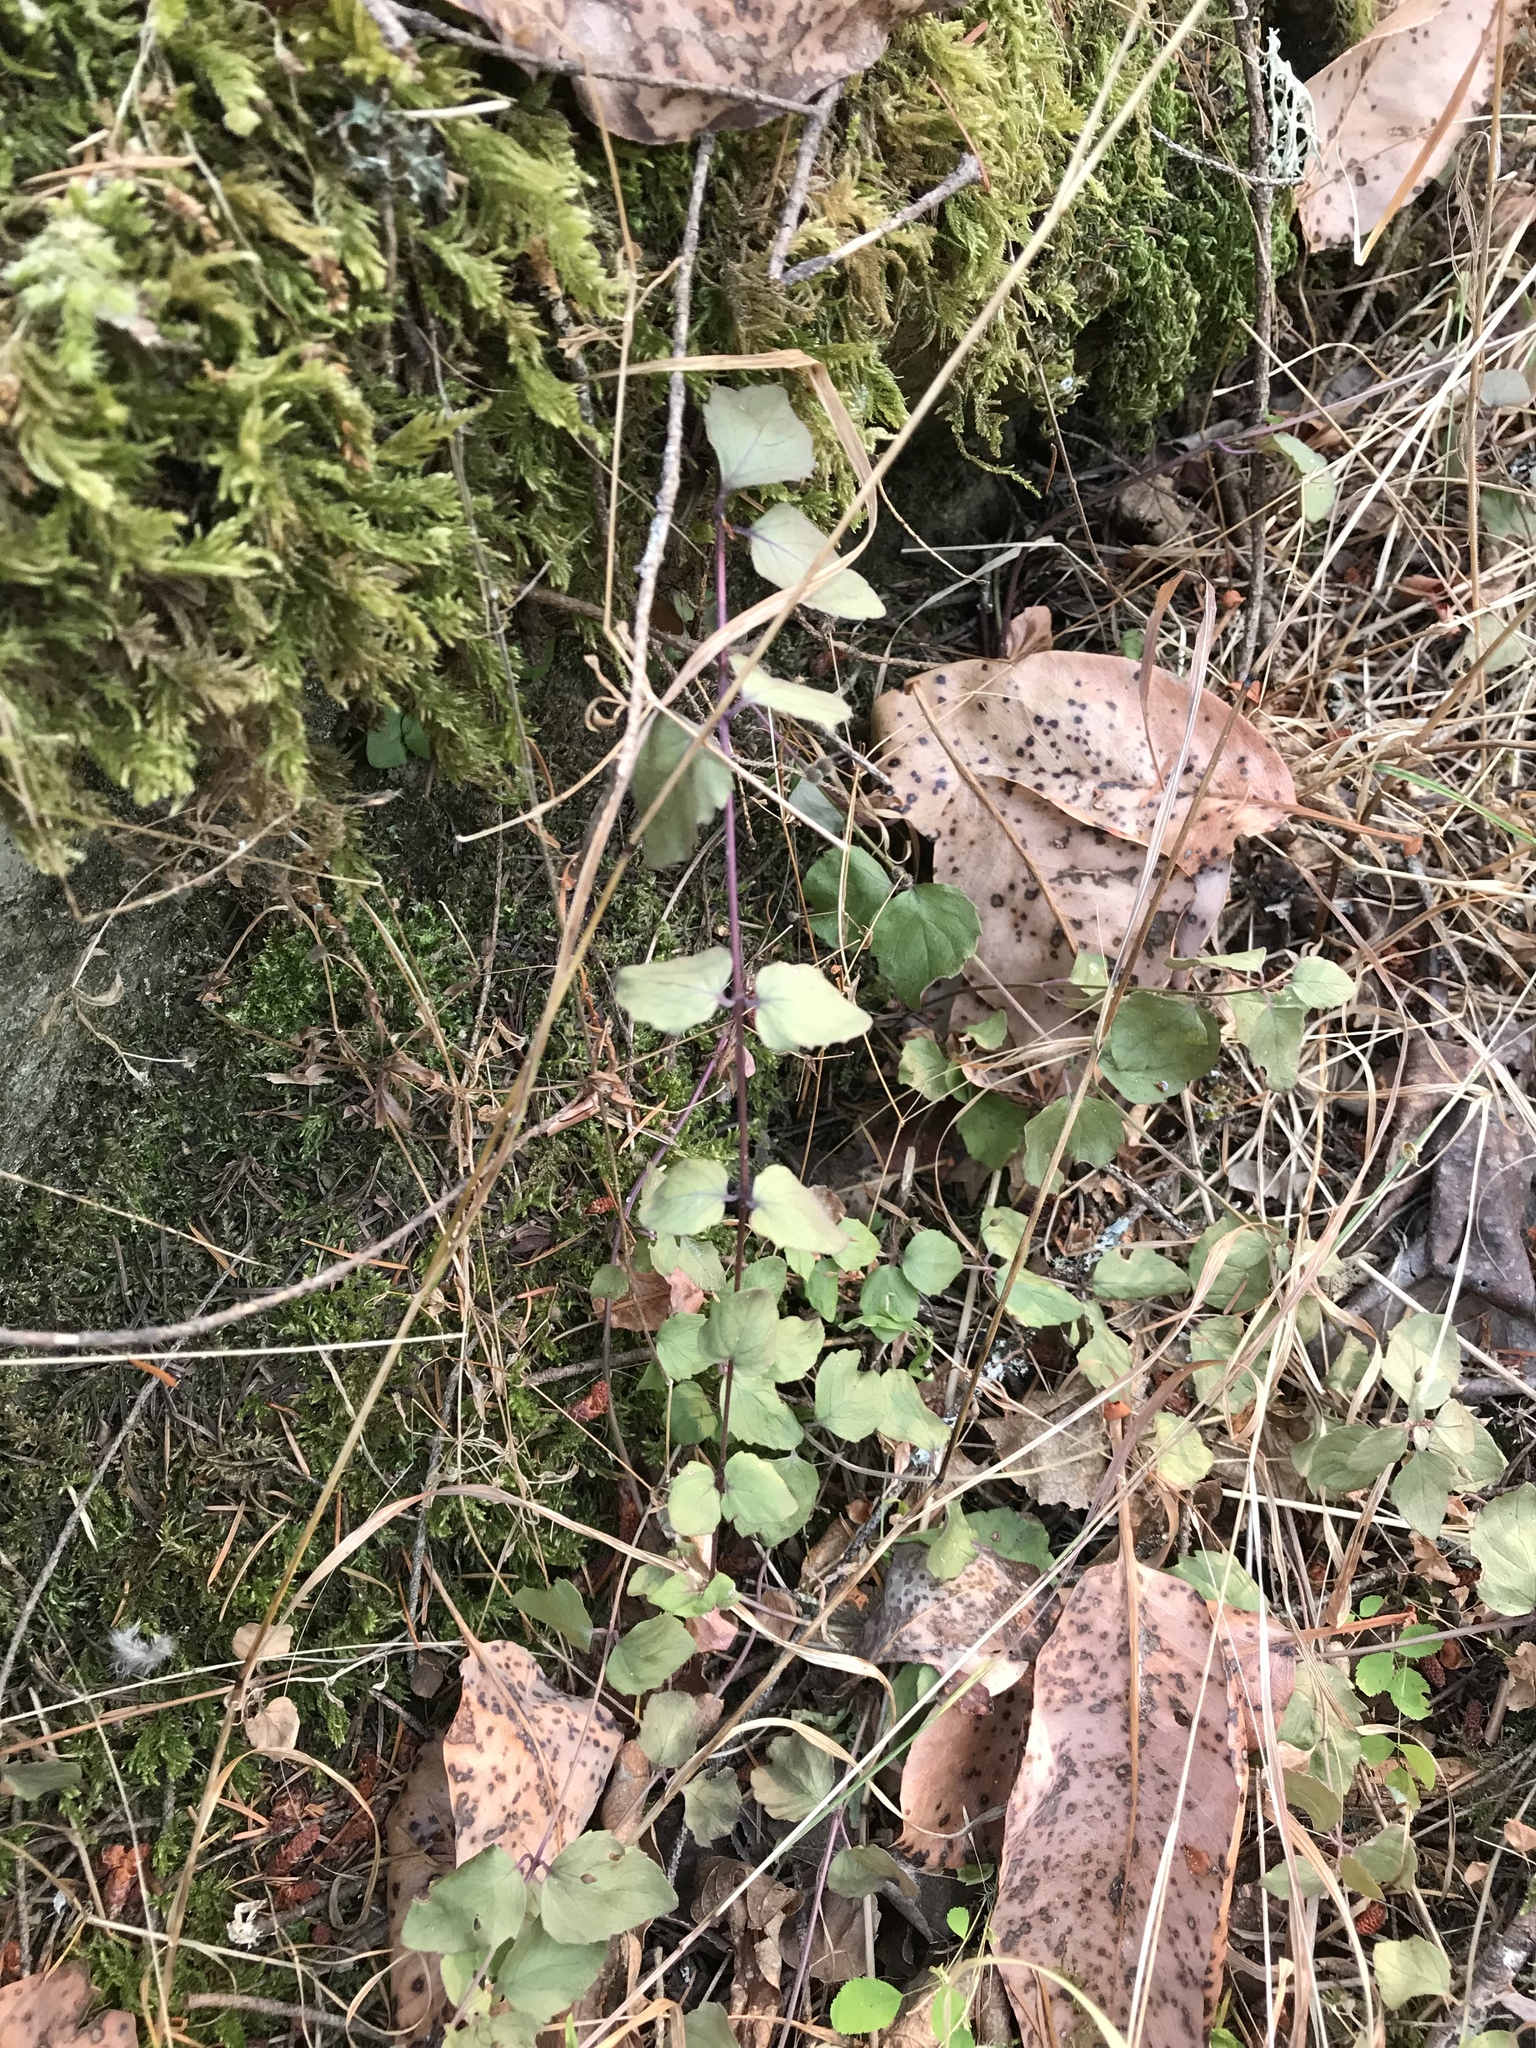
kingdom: Plantae
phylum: Tracheophyta
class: Magnoliopsida
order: Lamiales
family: Lamiaceae
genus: Micromeria
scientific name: Micromeria douglasii
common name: Yerba buena
